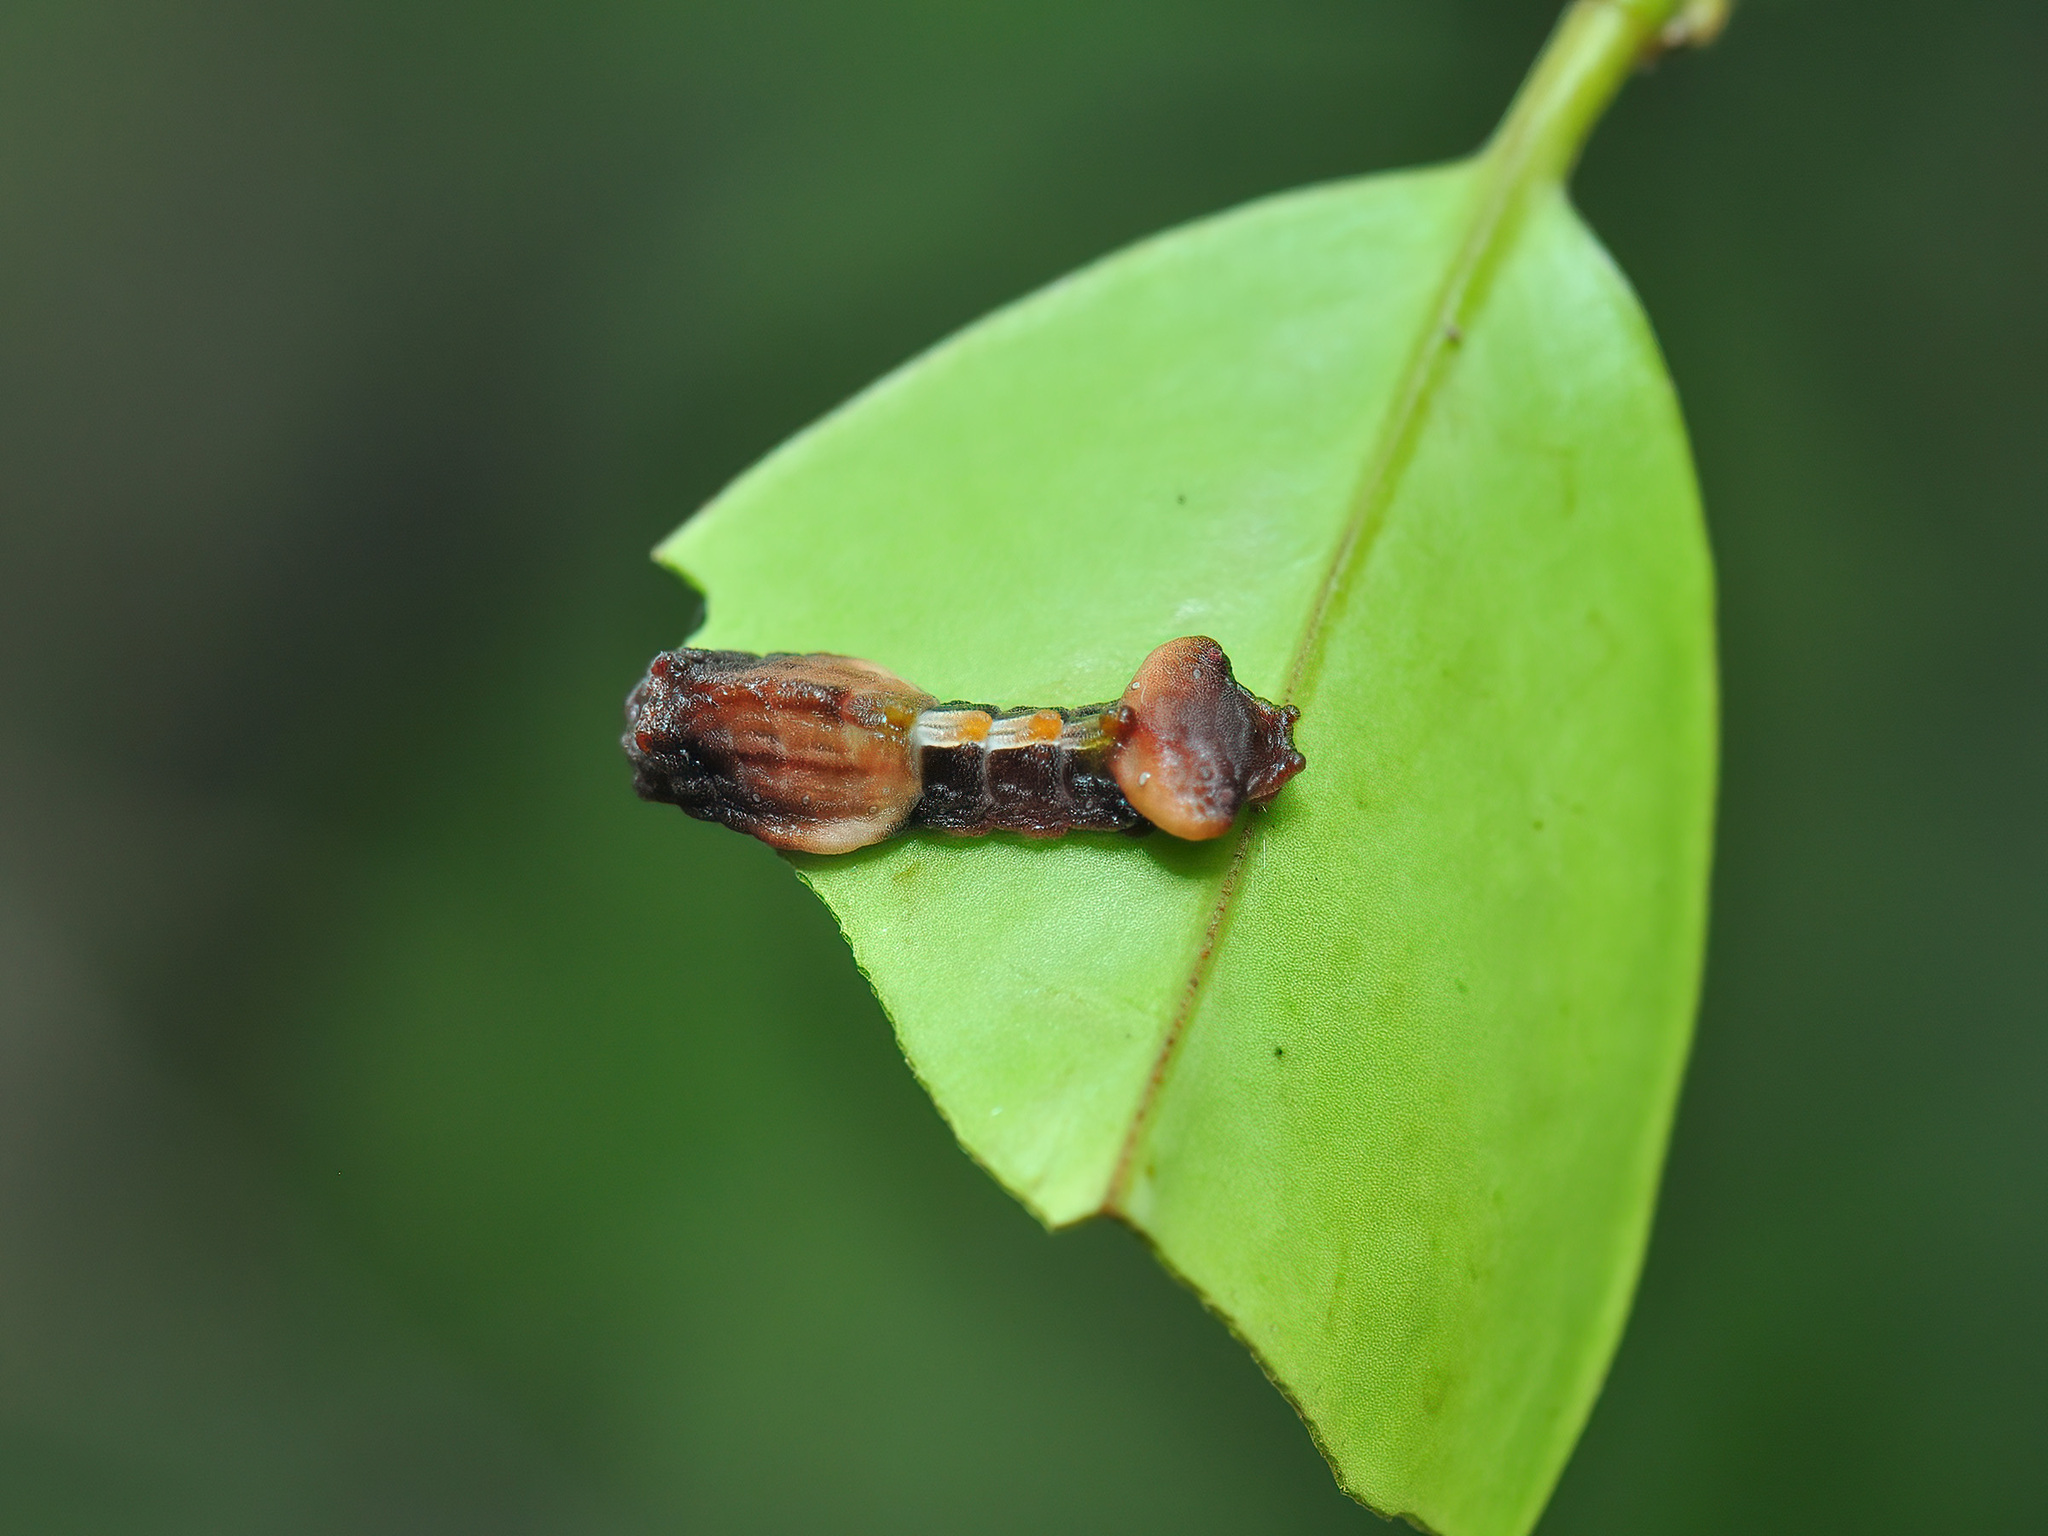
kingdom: Animalia
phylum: Arthropoda
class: Insecta
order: Lepidoptera
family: Lycaenidae
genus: Tajuria
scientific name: Tajuria mantra
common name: Felder's royal
